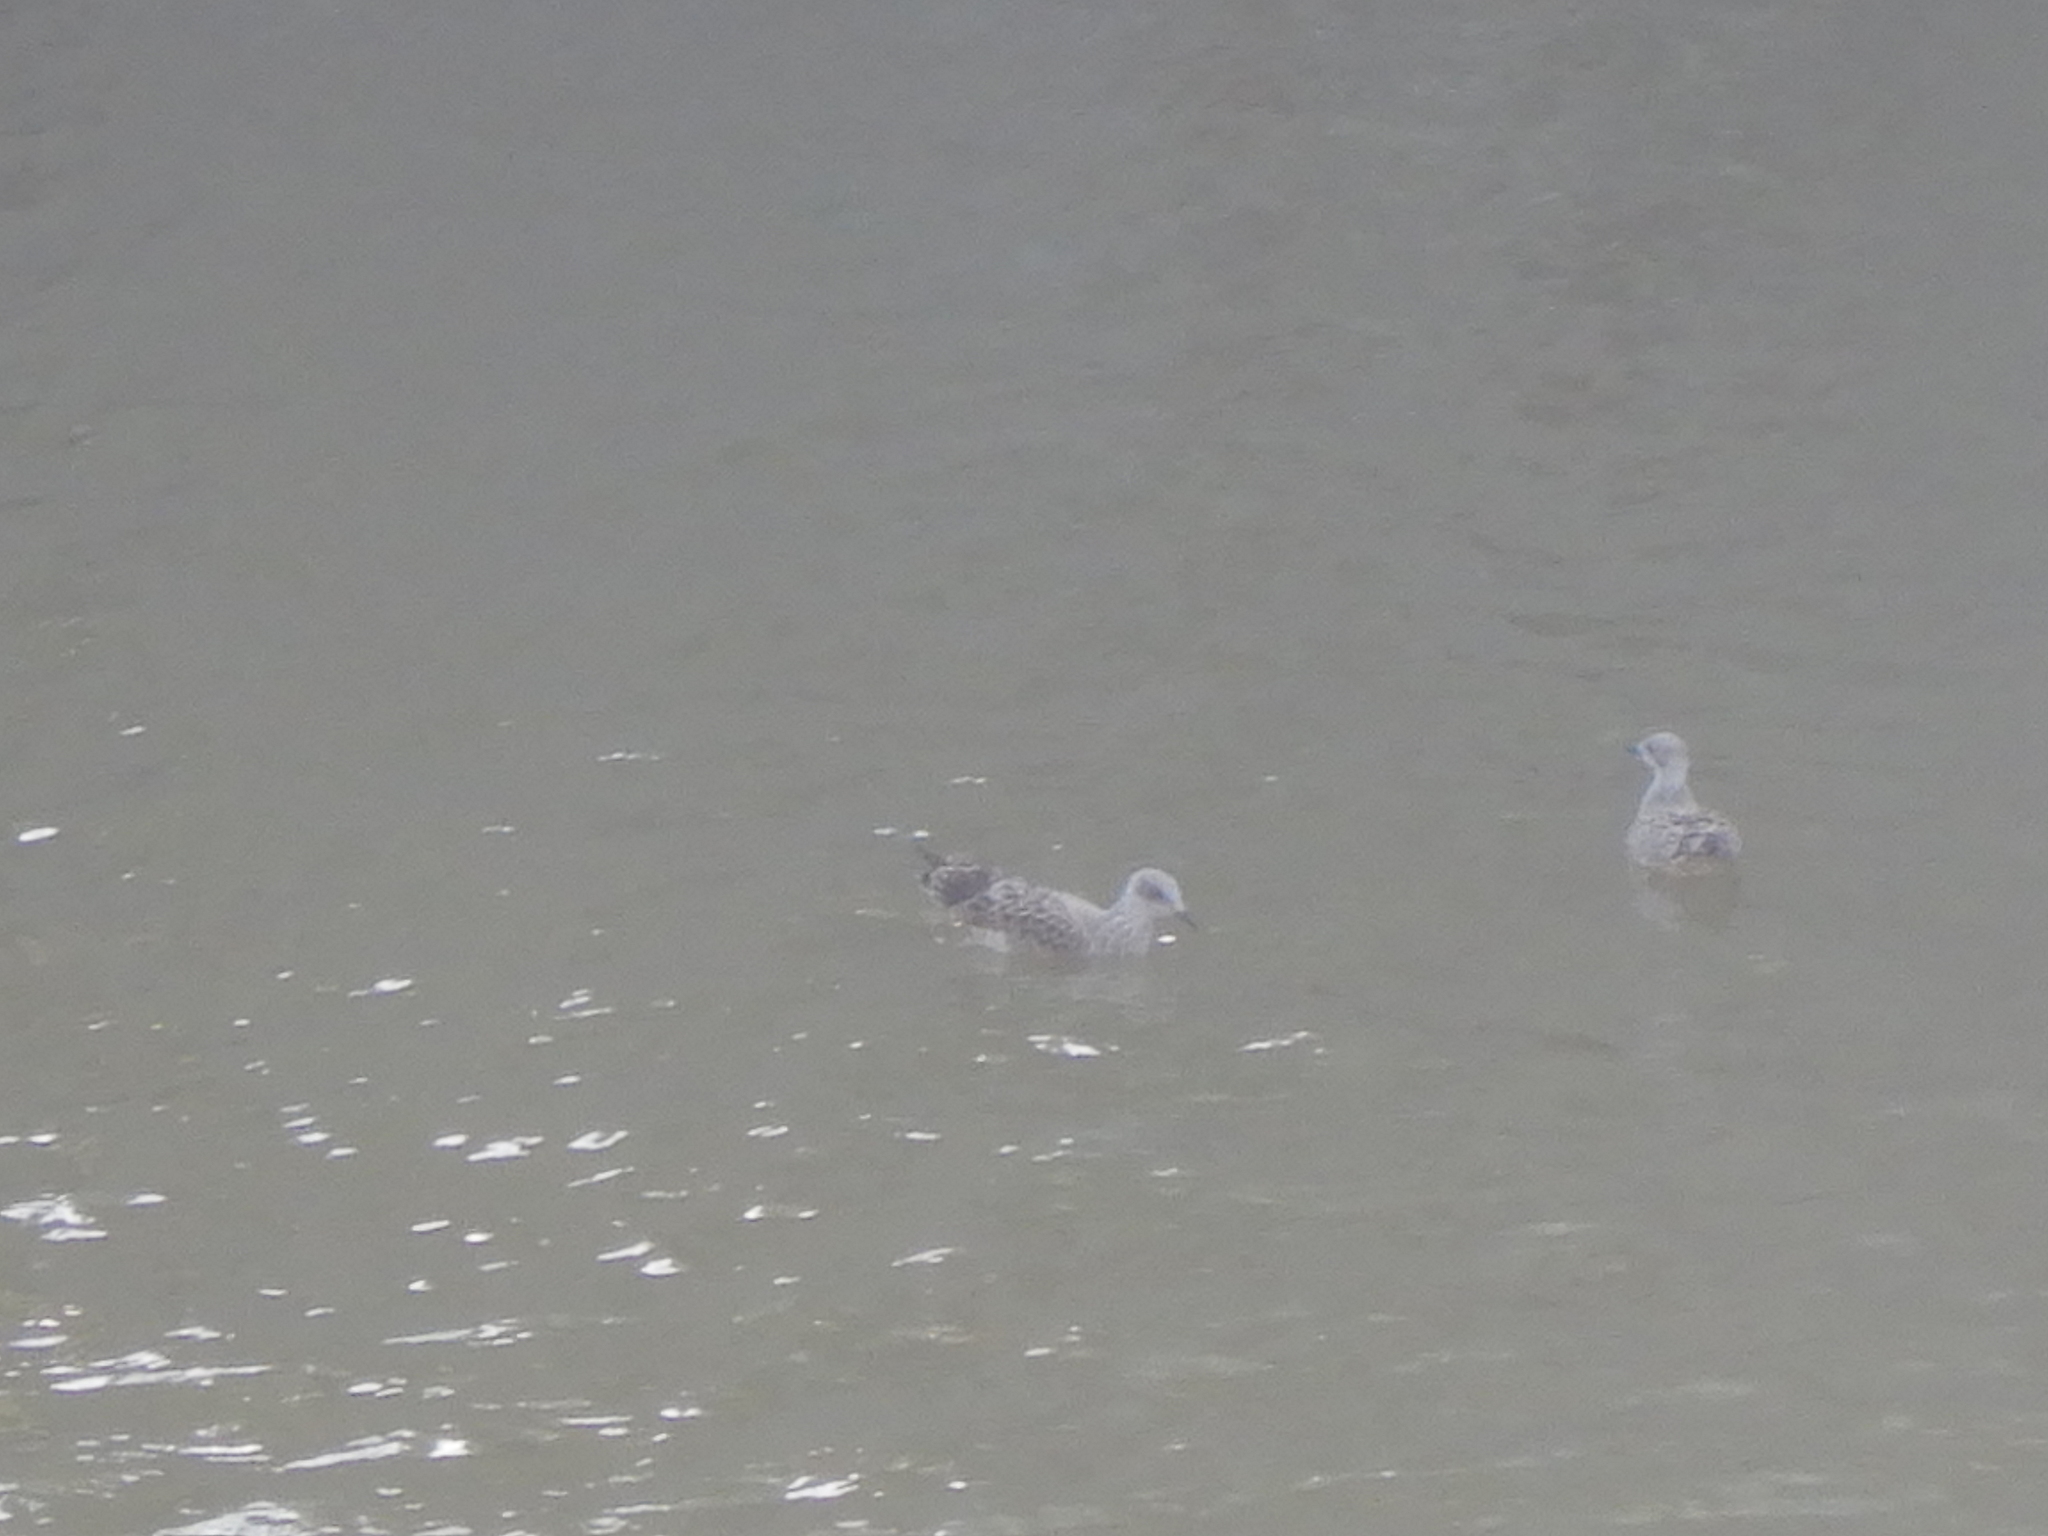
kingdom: Animalia
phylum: Chordata
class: Aves
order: Charadriiformes
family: Laridae
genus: Larus
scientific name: Larus argentatus
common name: Herring gull
